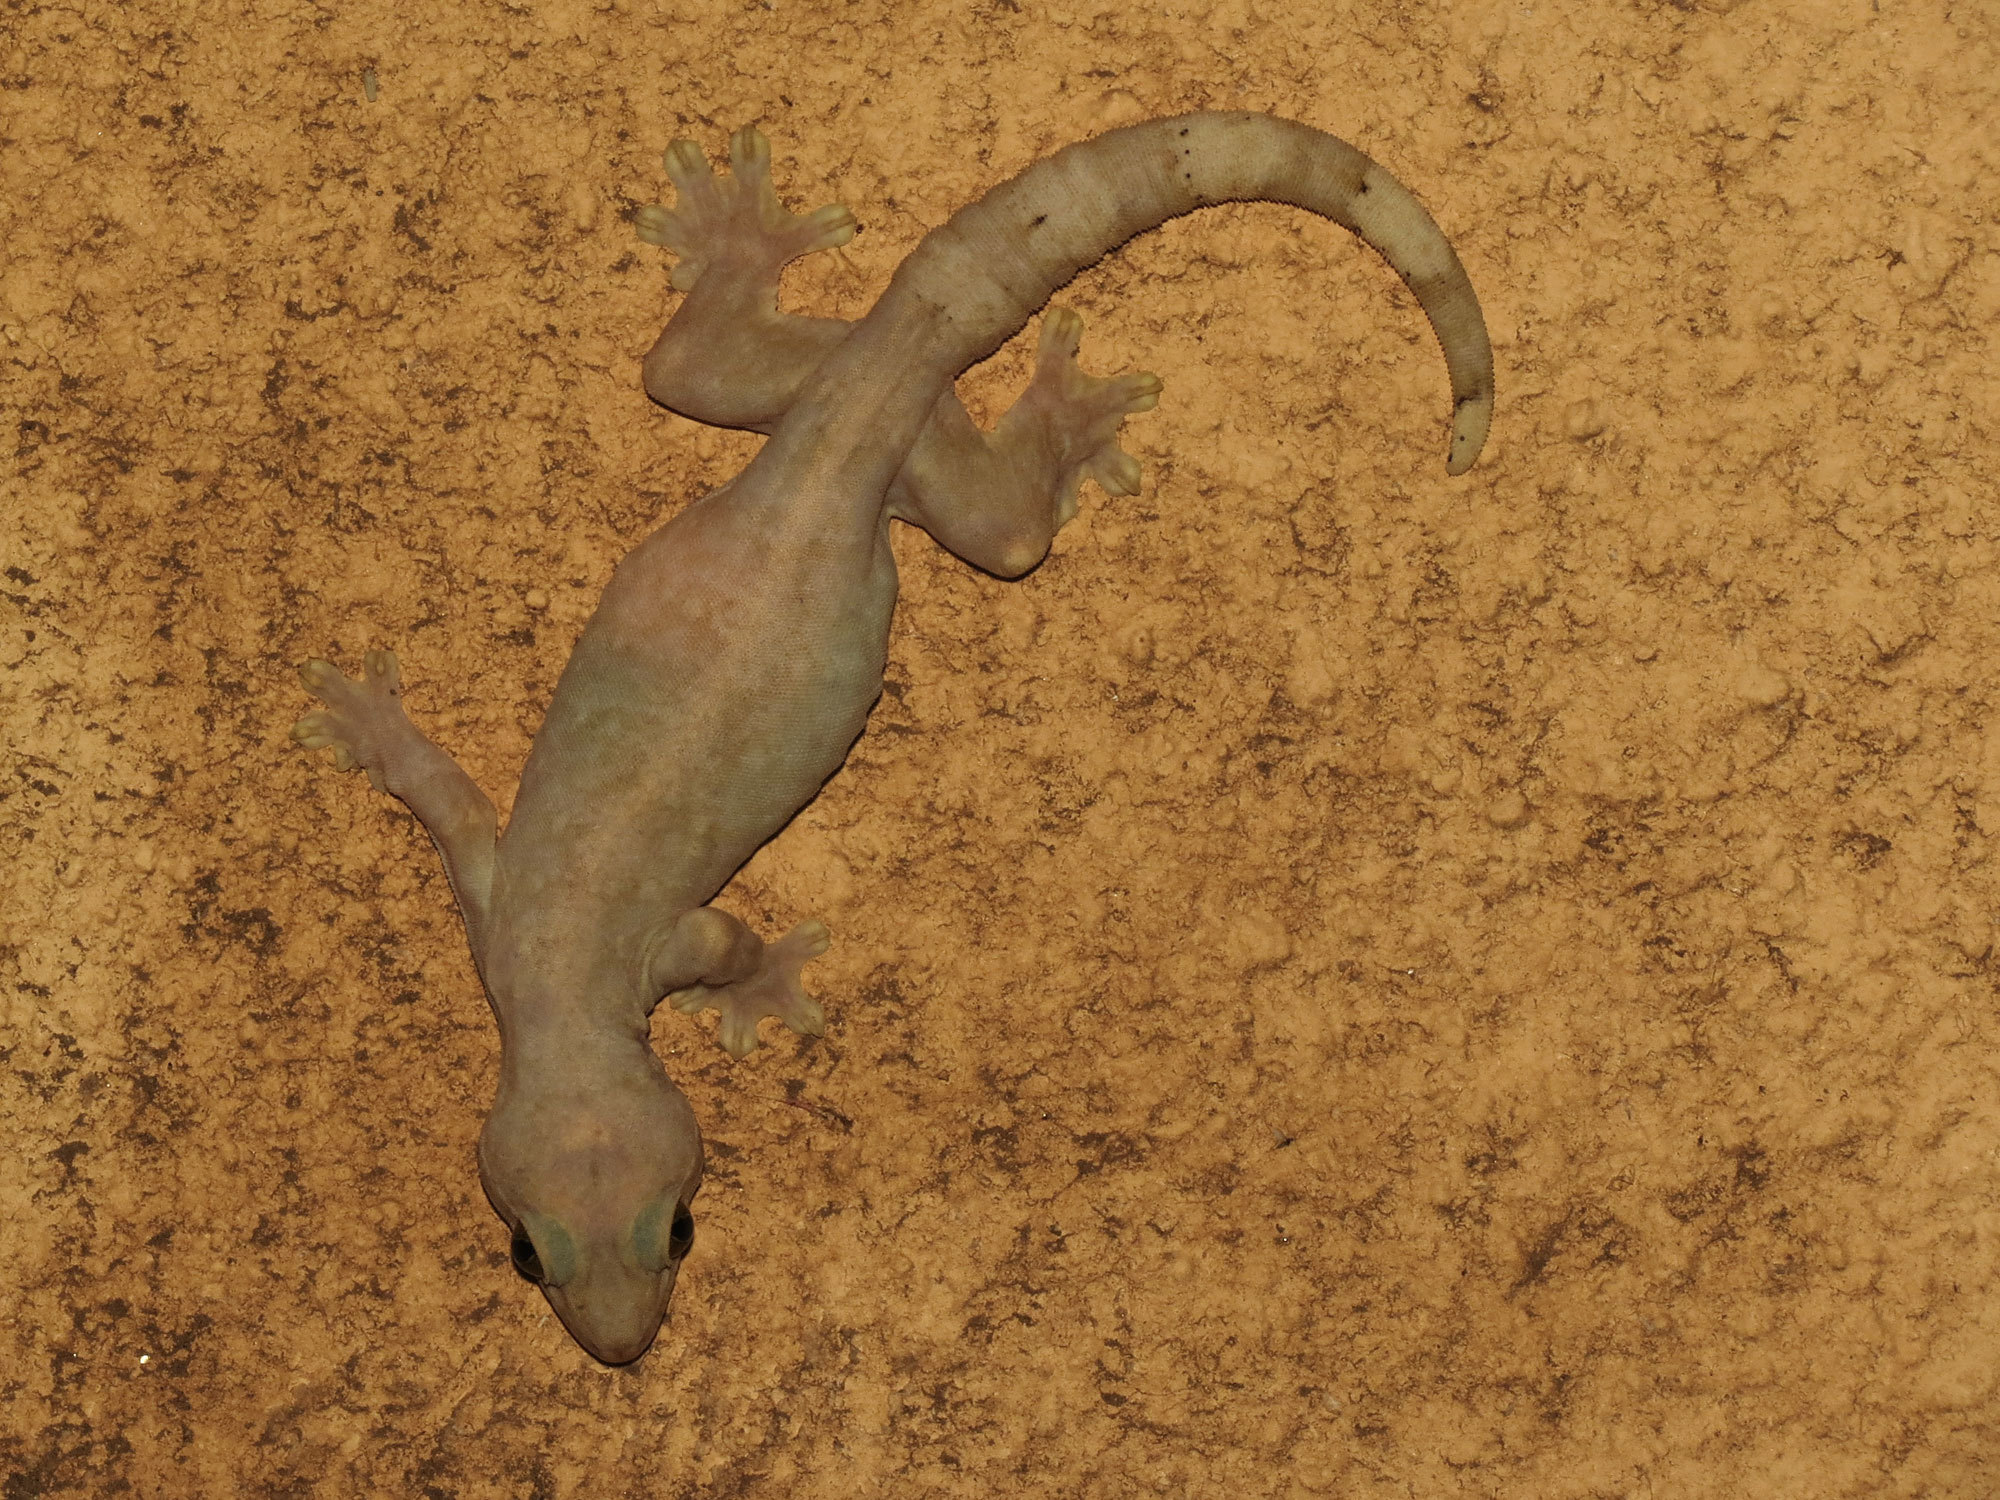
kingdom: Animalia
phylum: Chordata
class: Squamata
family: Phyllodactylidae
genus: Thecadactylus
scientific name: Thecadactylus rapicauda
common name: Turnip-tailed gecko
